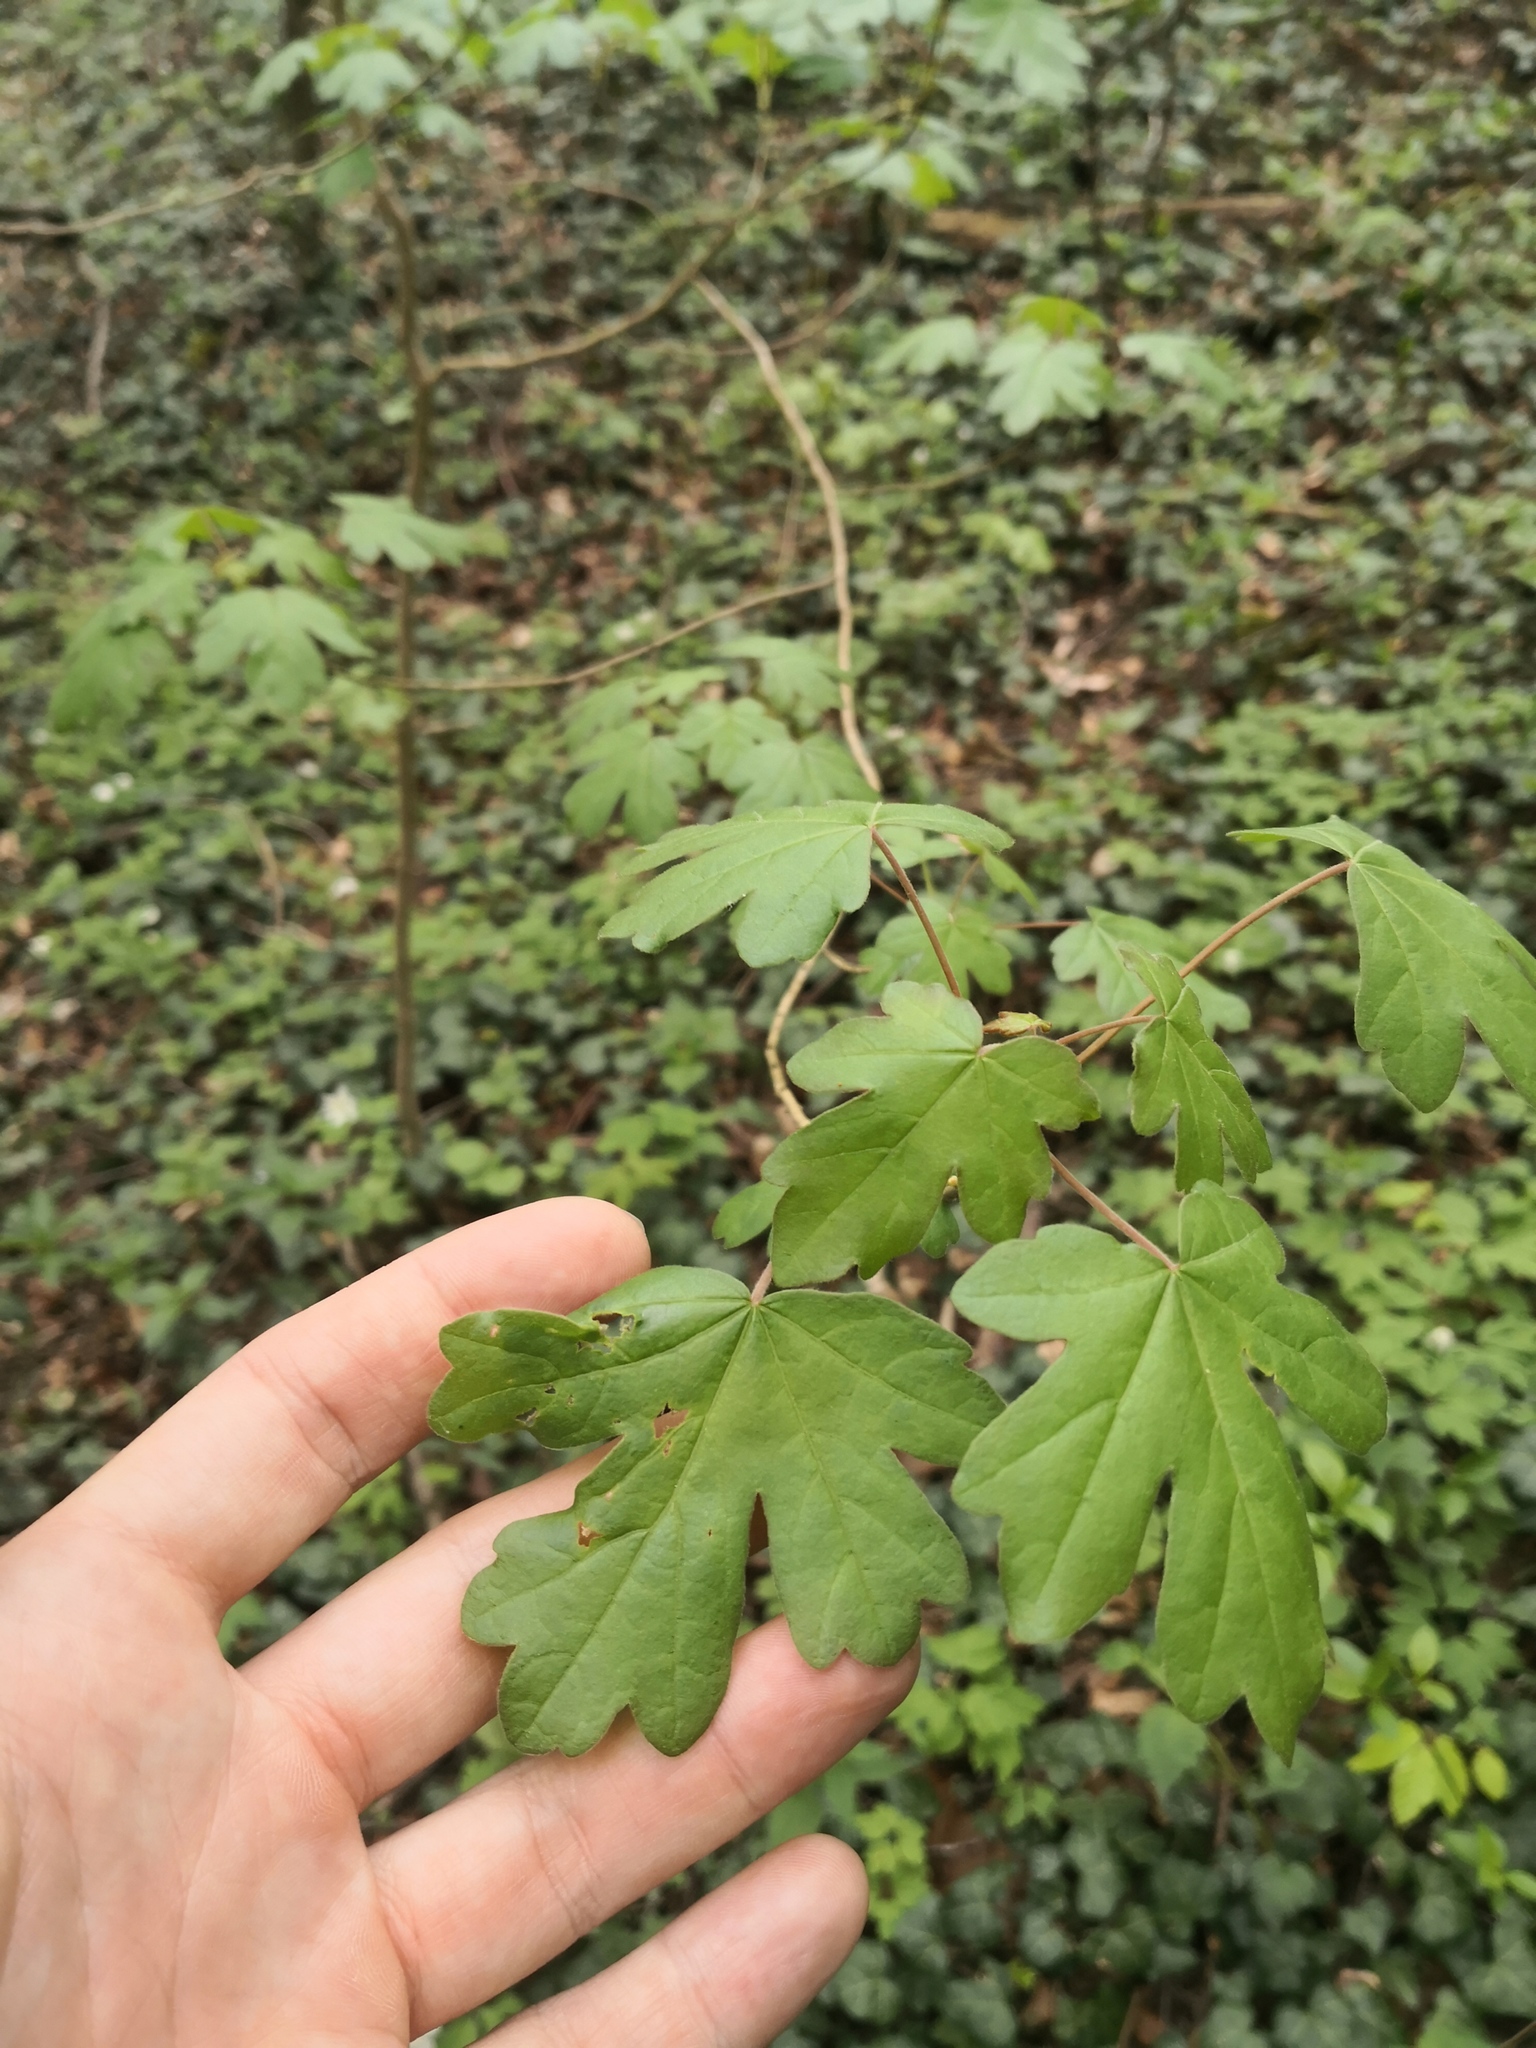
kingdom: Plantae
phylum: Tracheophyta
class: Magnoliopsida
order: Sapindales
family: Sapindaceae
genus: Acer
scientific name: Acer campestre
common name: Field maple
